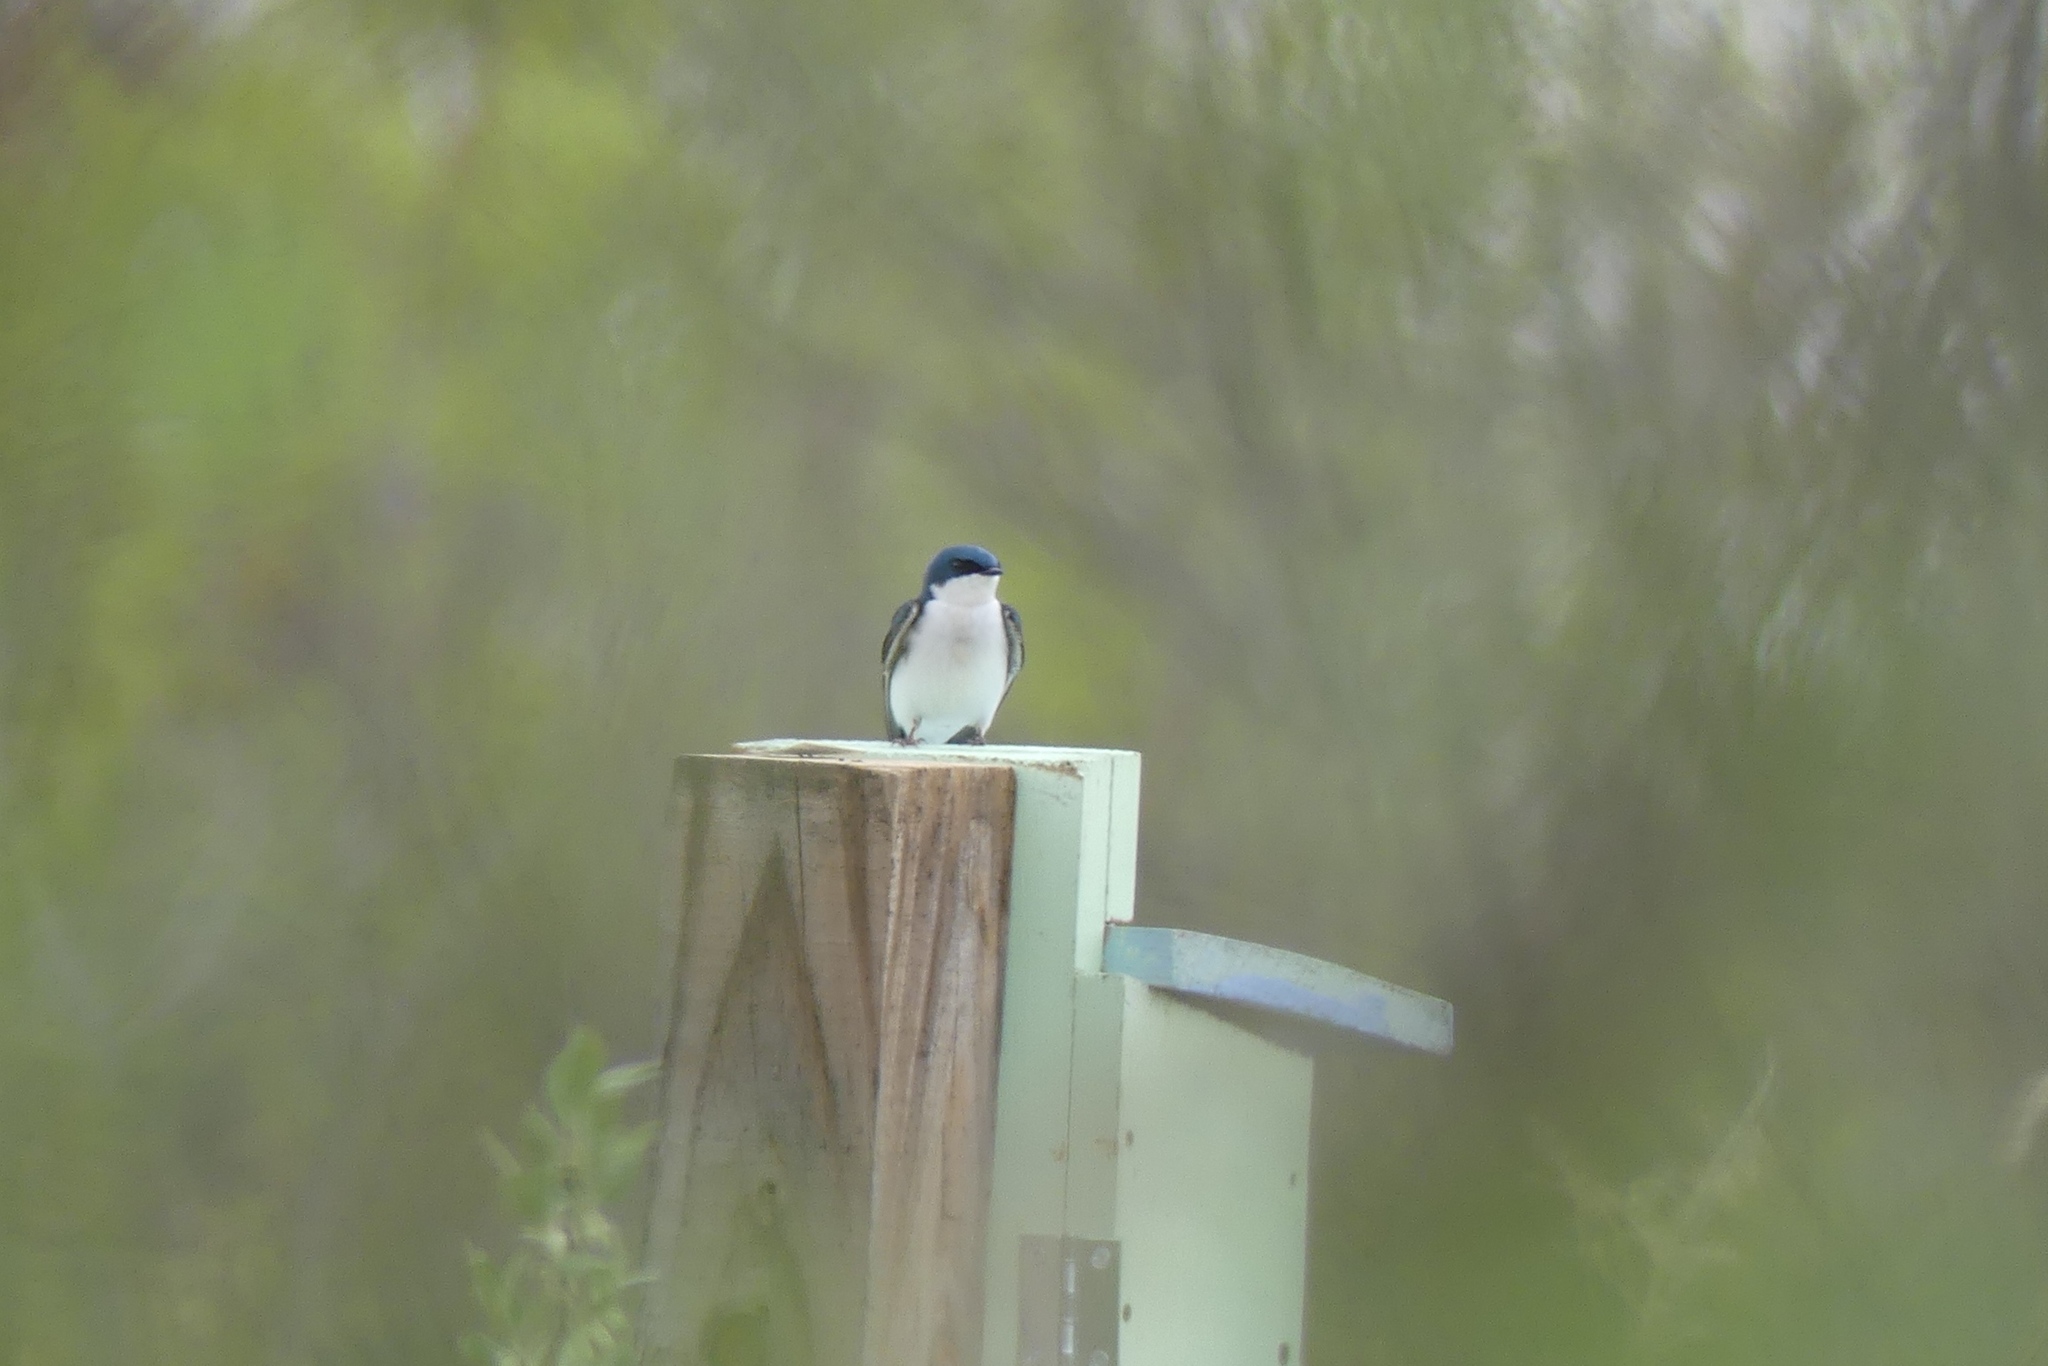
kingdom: Animalia
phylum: Chordata
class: Aves
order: Passeriformes
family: Hirundinidae
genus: Tachycineta
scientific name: Tachycineta bicolor
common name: Tree swallow
